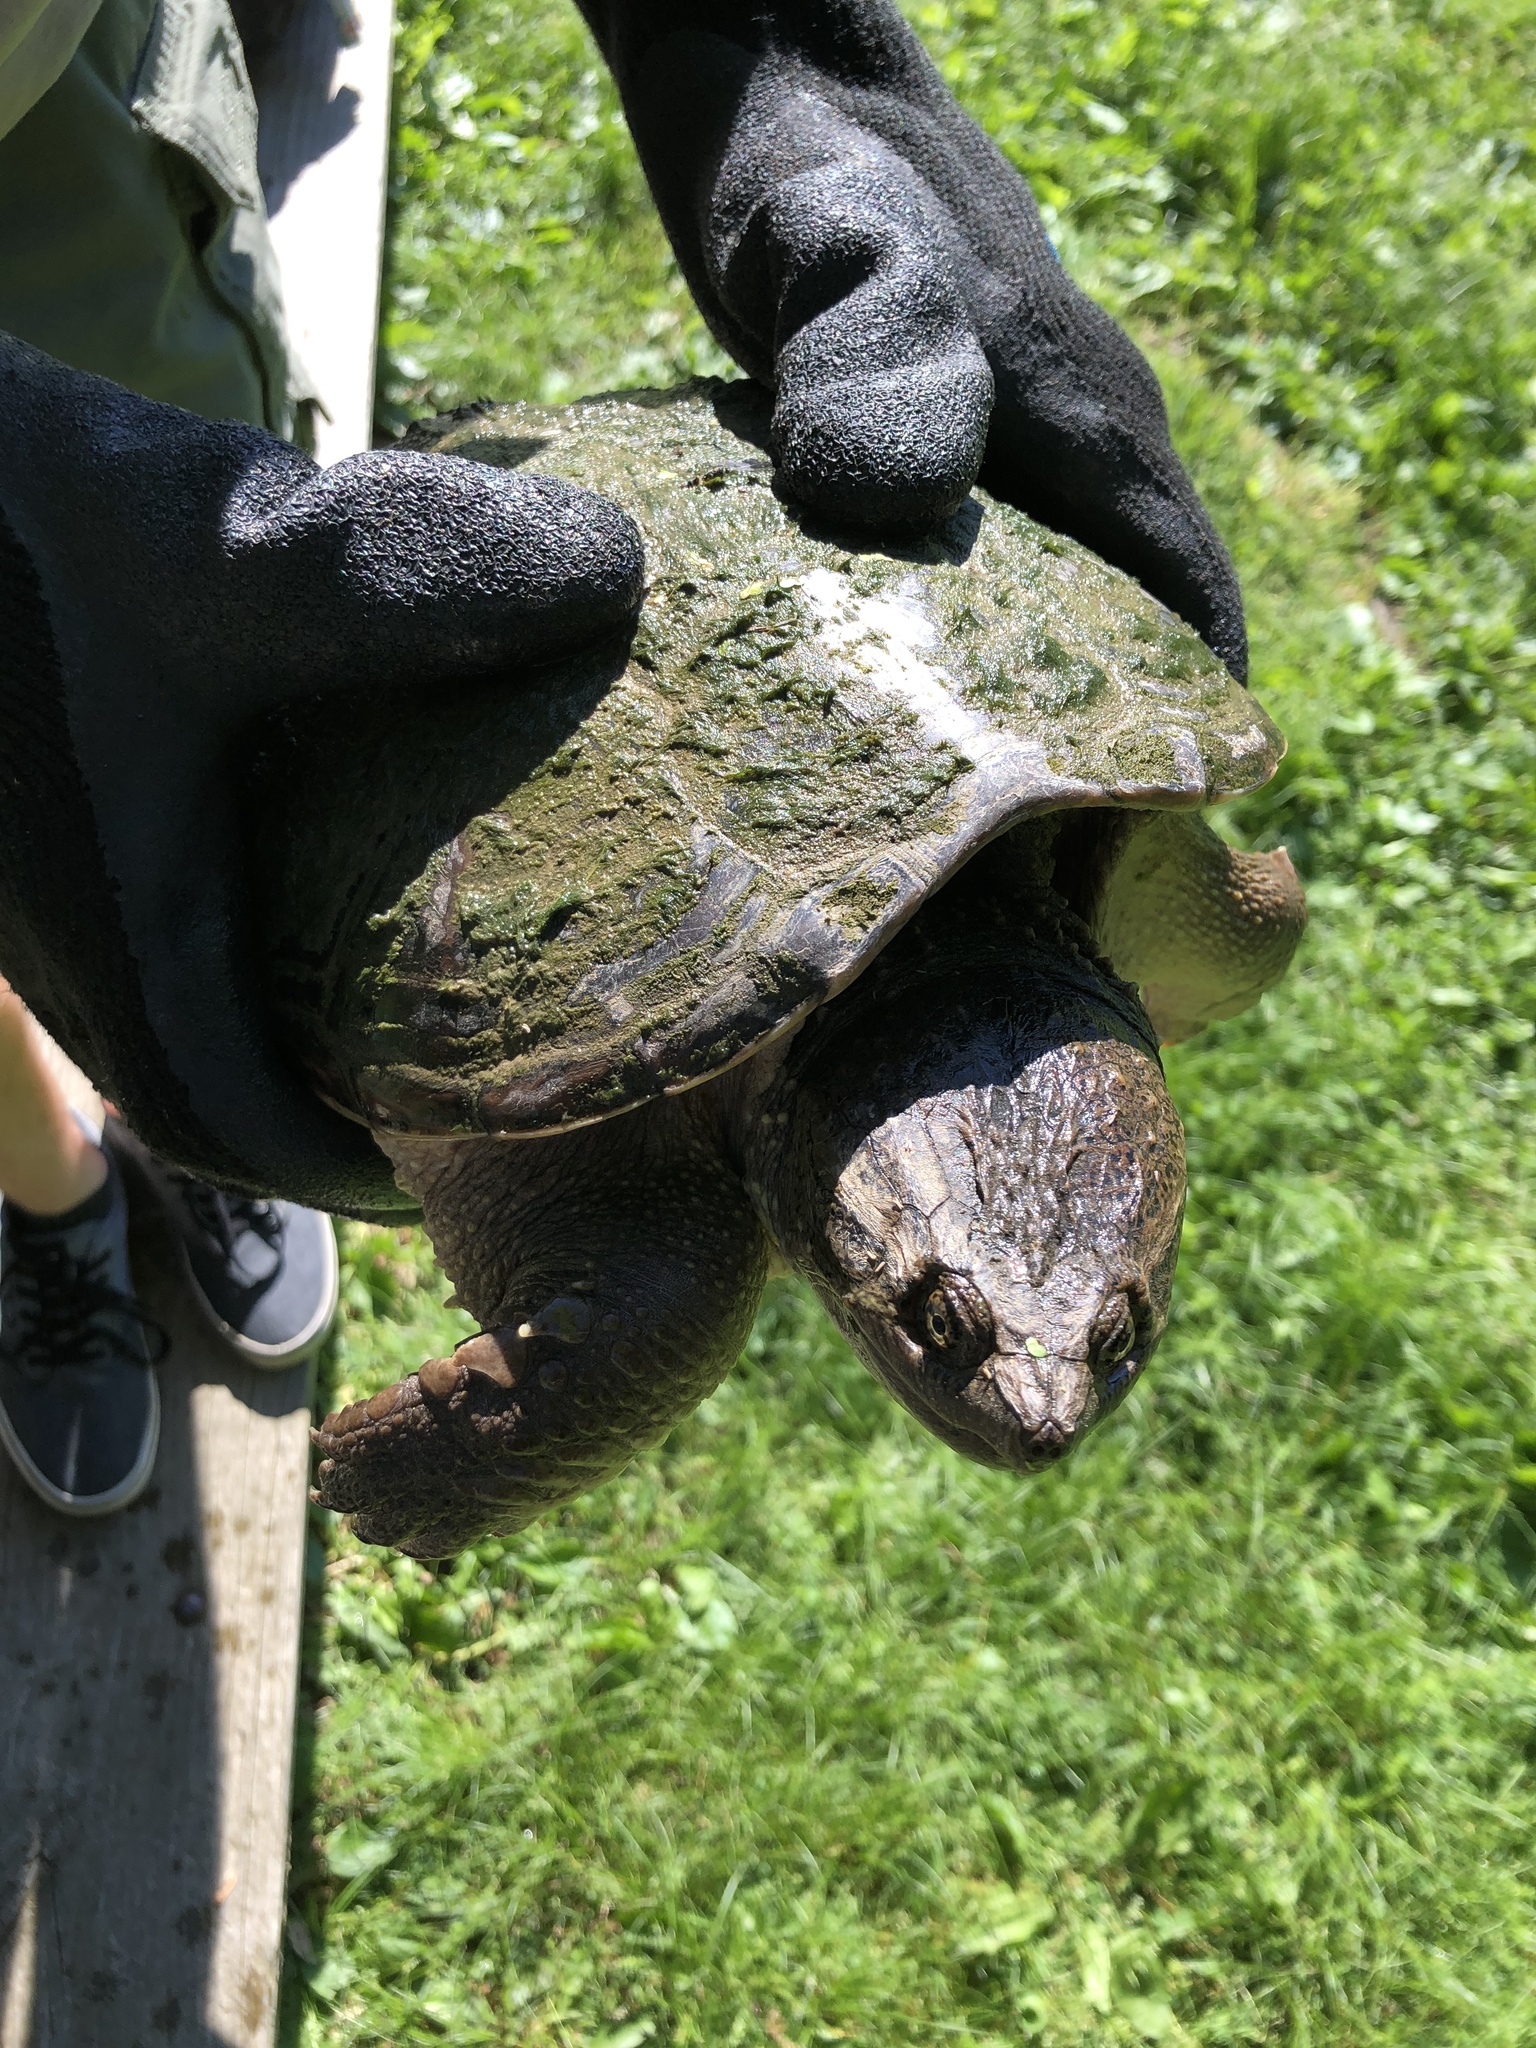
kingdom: Animalia
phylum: Chordata
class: Testudines
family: Chelydridae
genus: Chelydra
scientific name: Chelydra serpentina
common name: Common snapping turtle
